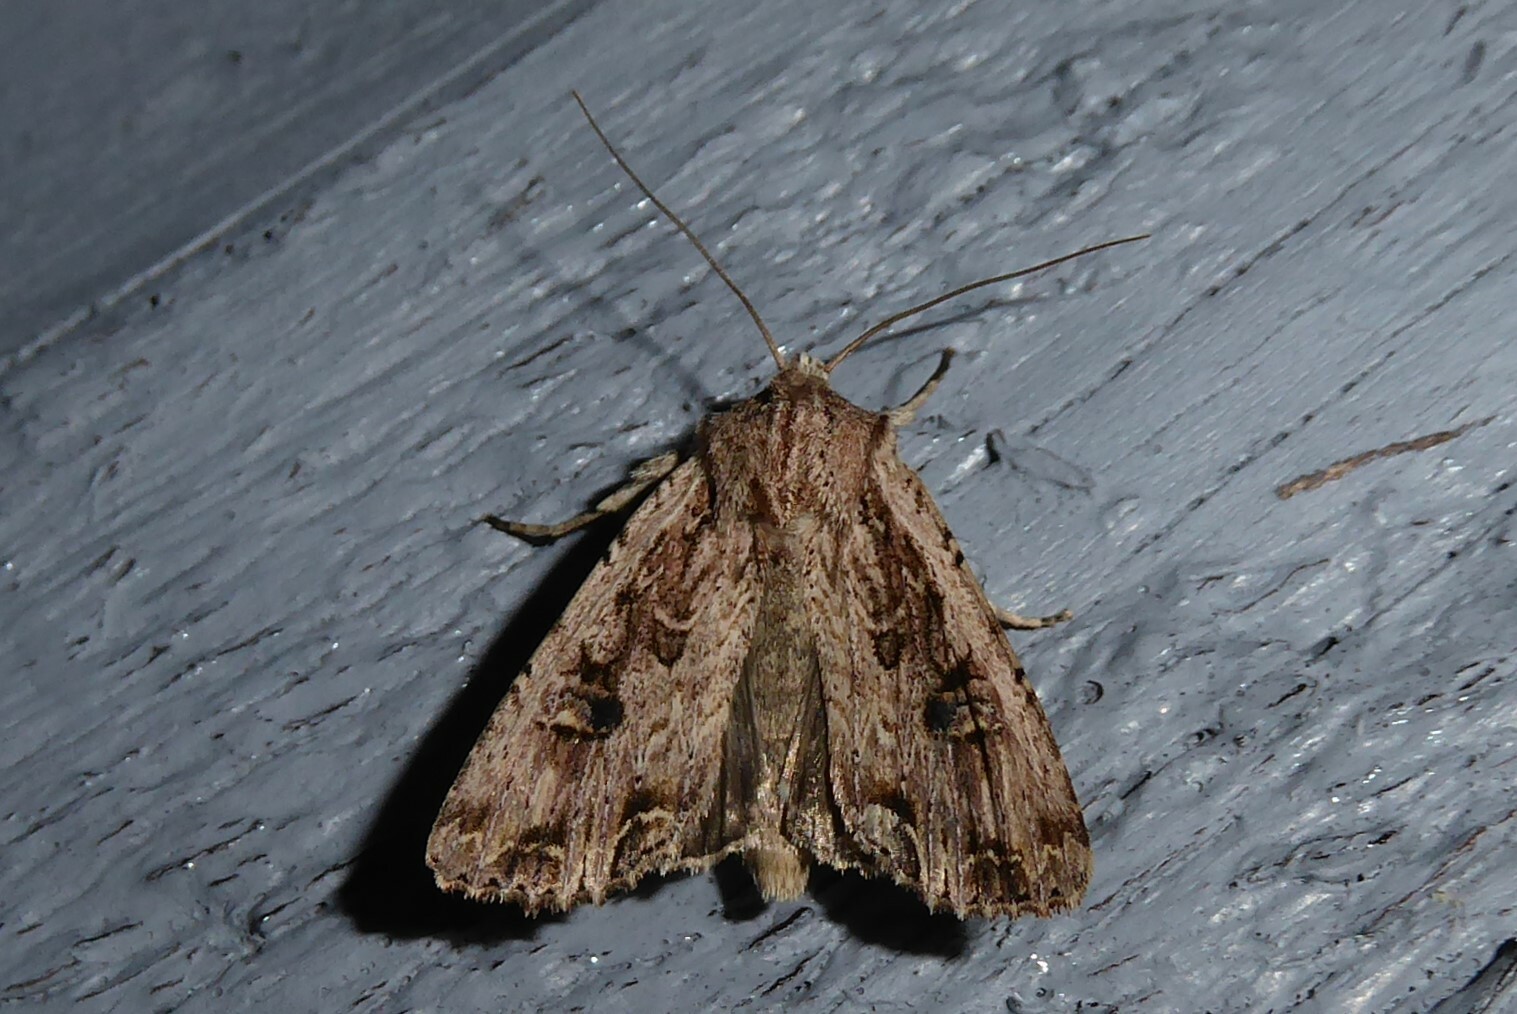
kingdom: Animalia
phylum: Arthropoda
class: Insecta
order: Lepidoptera
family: Noctuidae
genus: Ichneutica
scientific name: Ichneutica lignana
